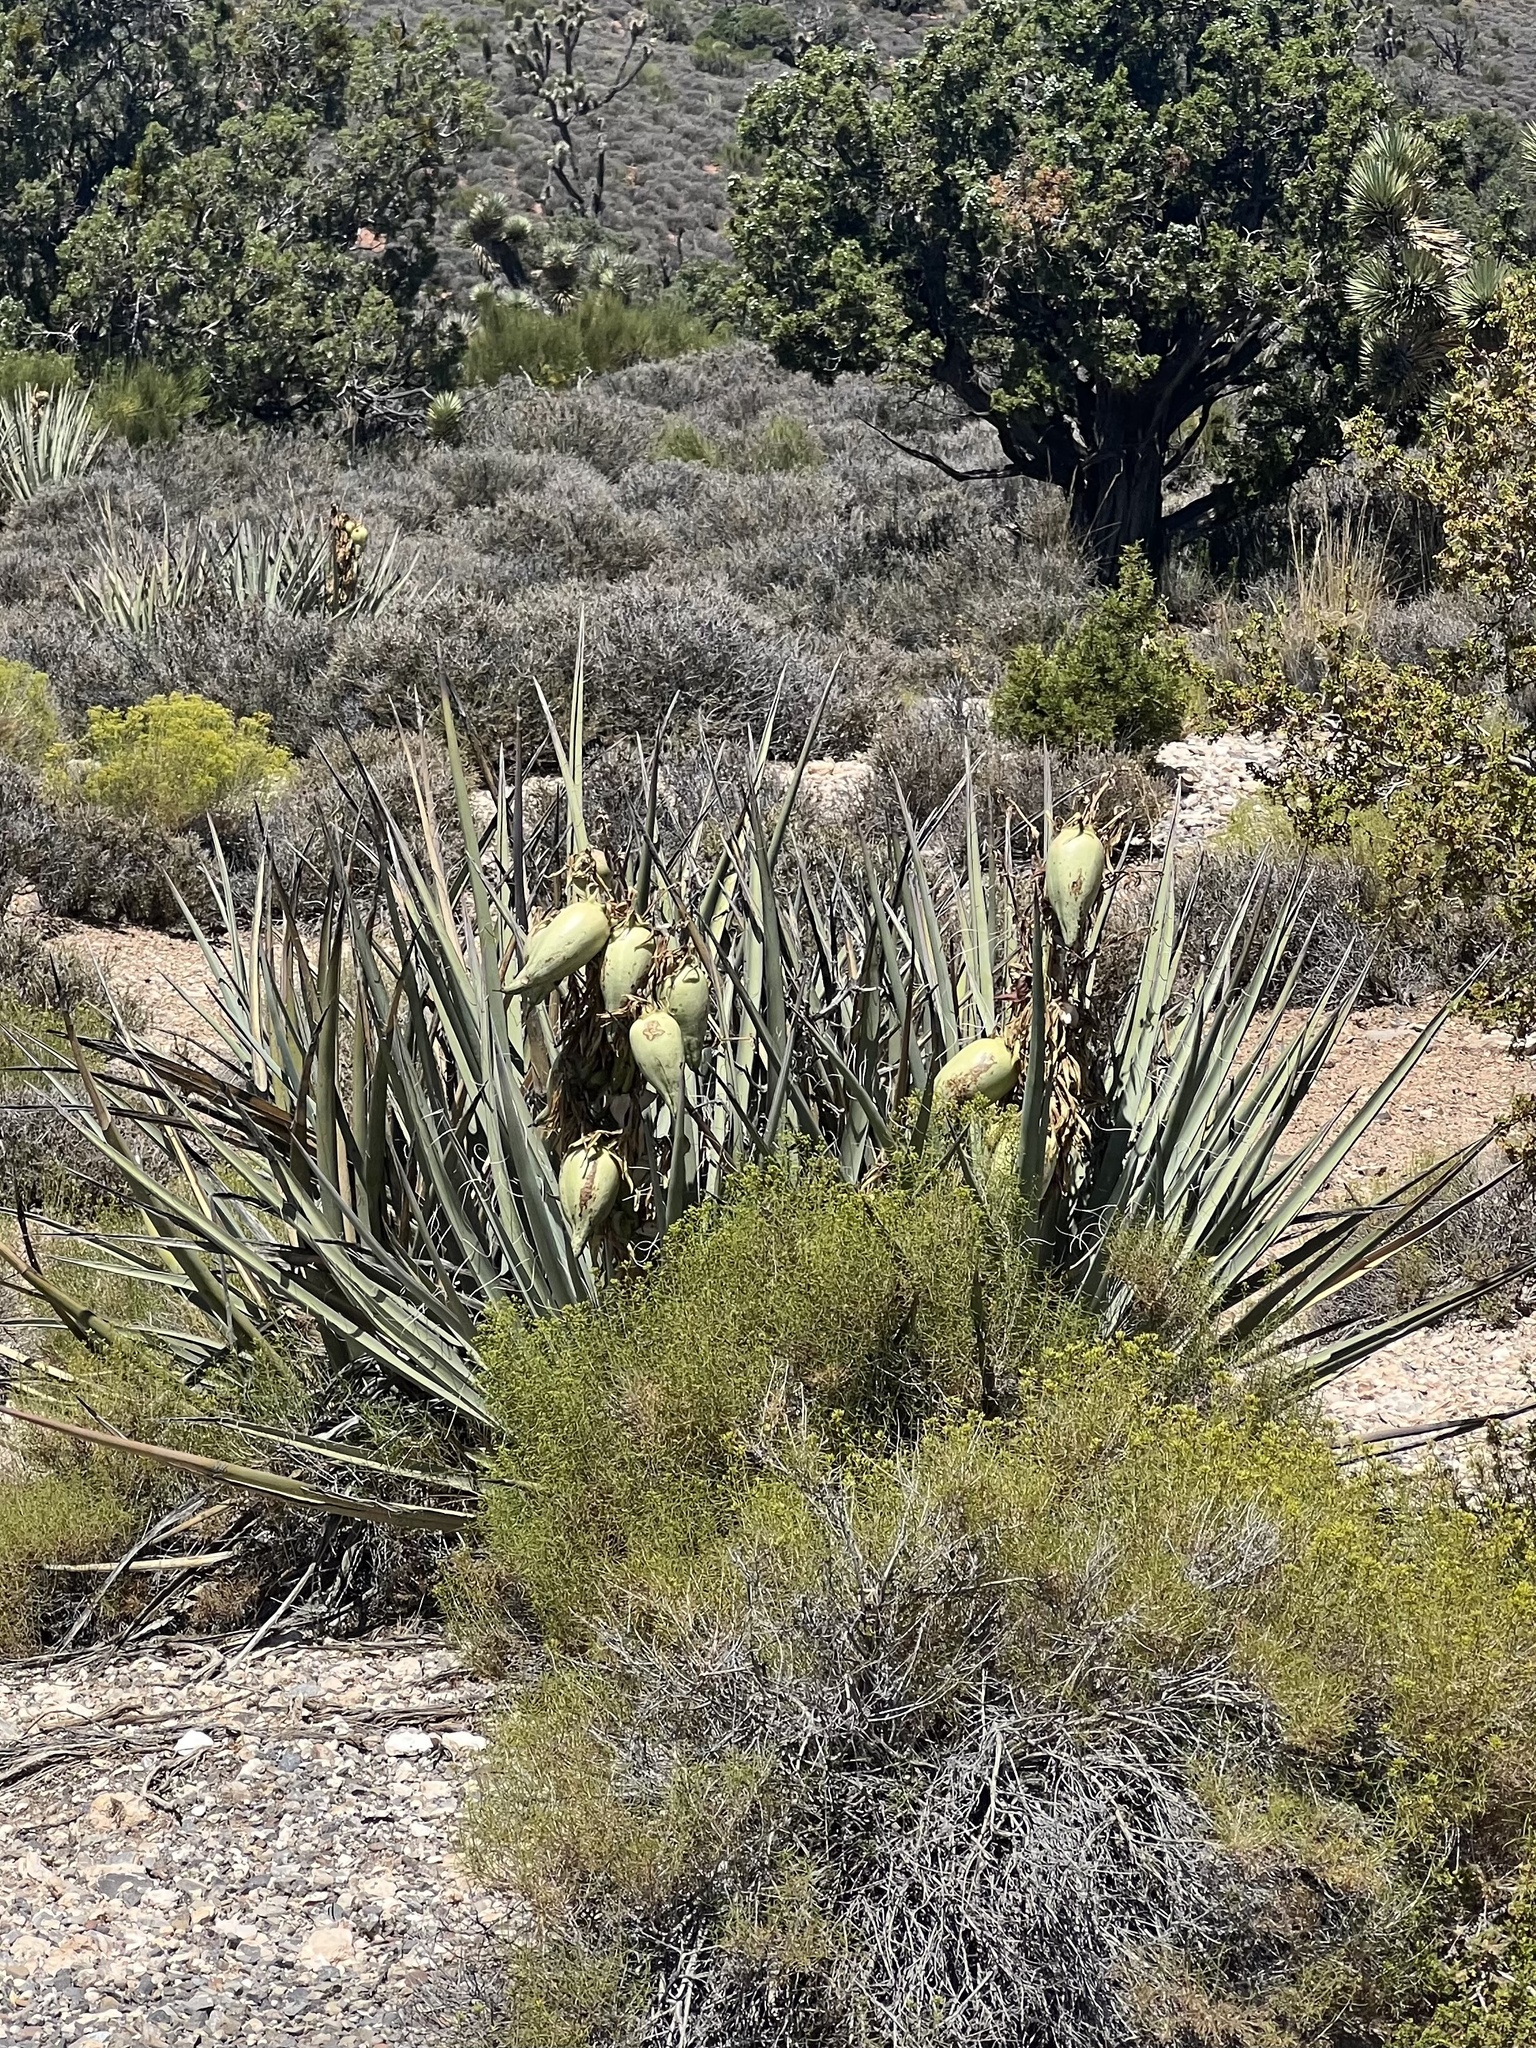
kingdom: Plantae
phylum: Tracheophyta
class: Liliopsida
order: Asparagales
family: Asparagaceae
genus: Yucca
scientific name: Yucca baccata
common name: Banana yucca
